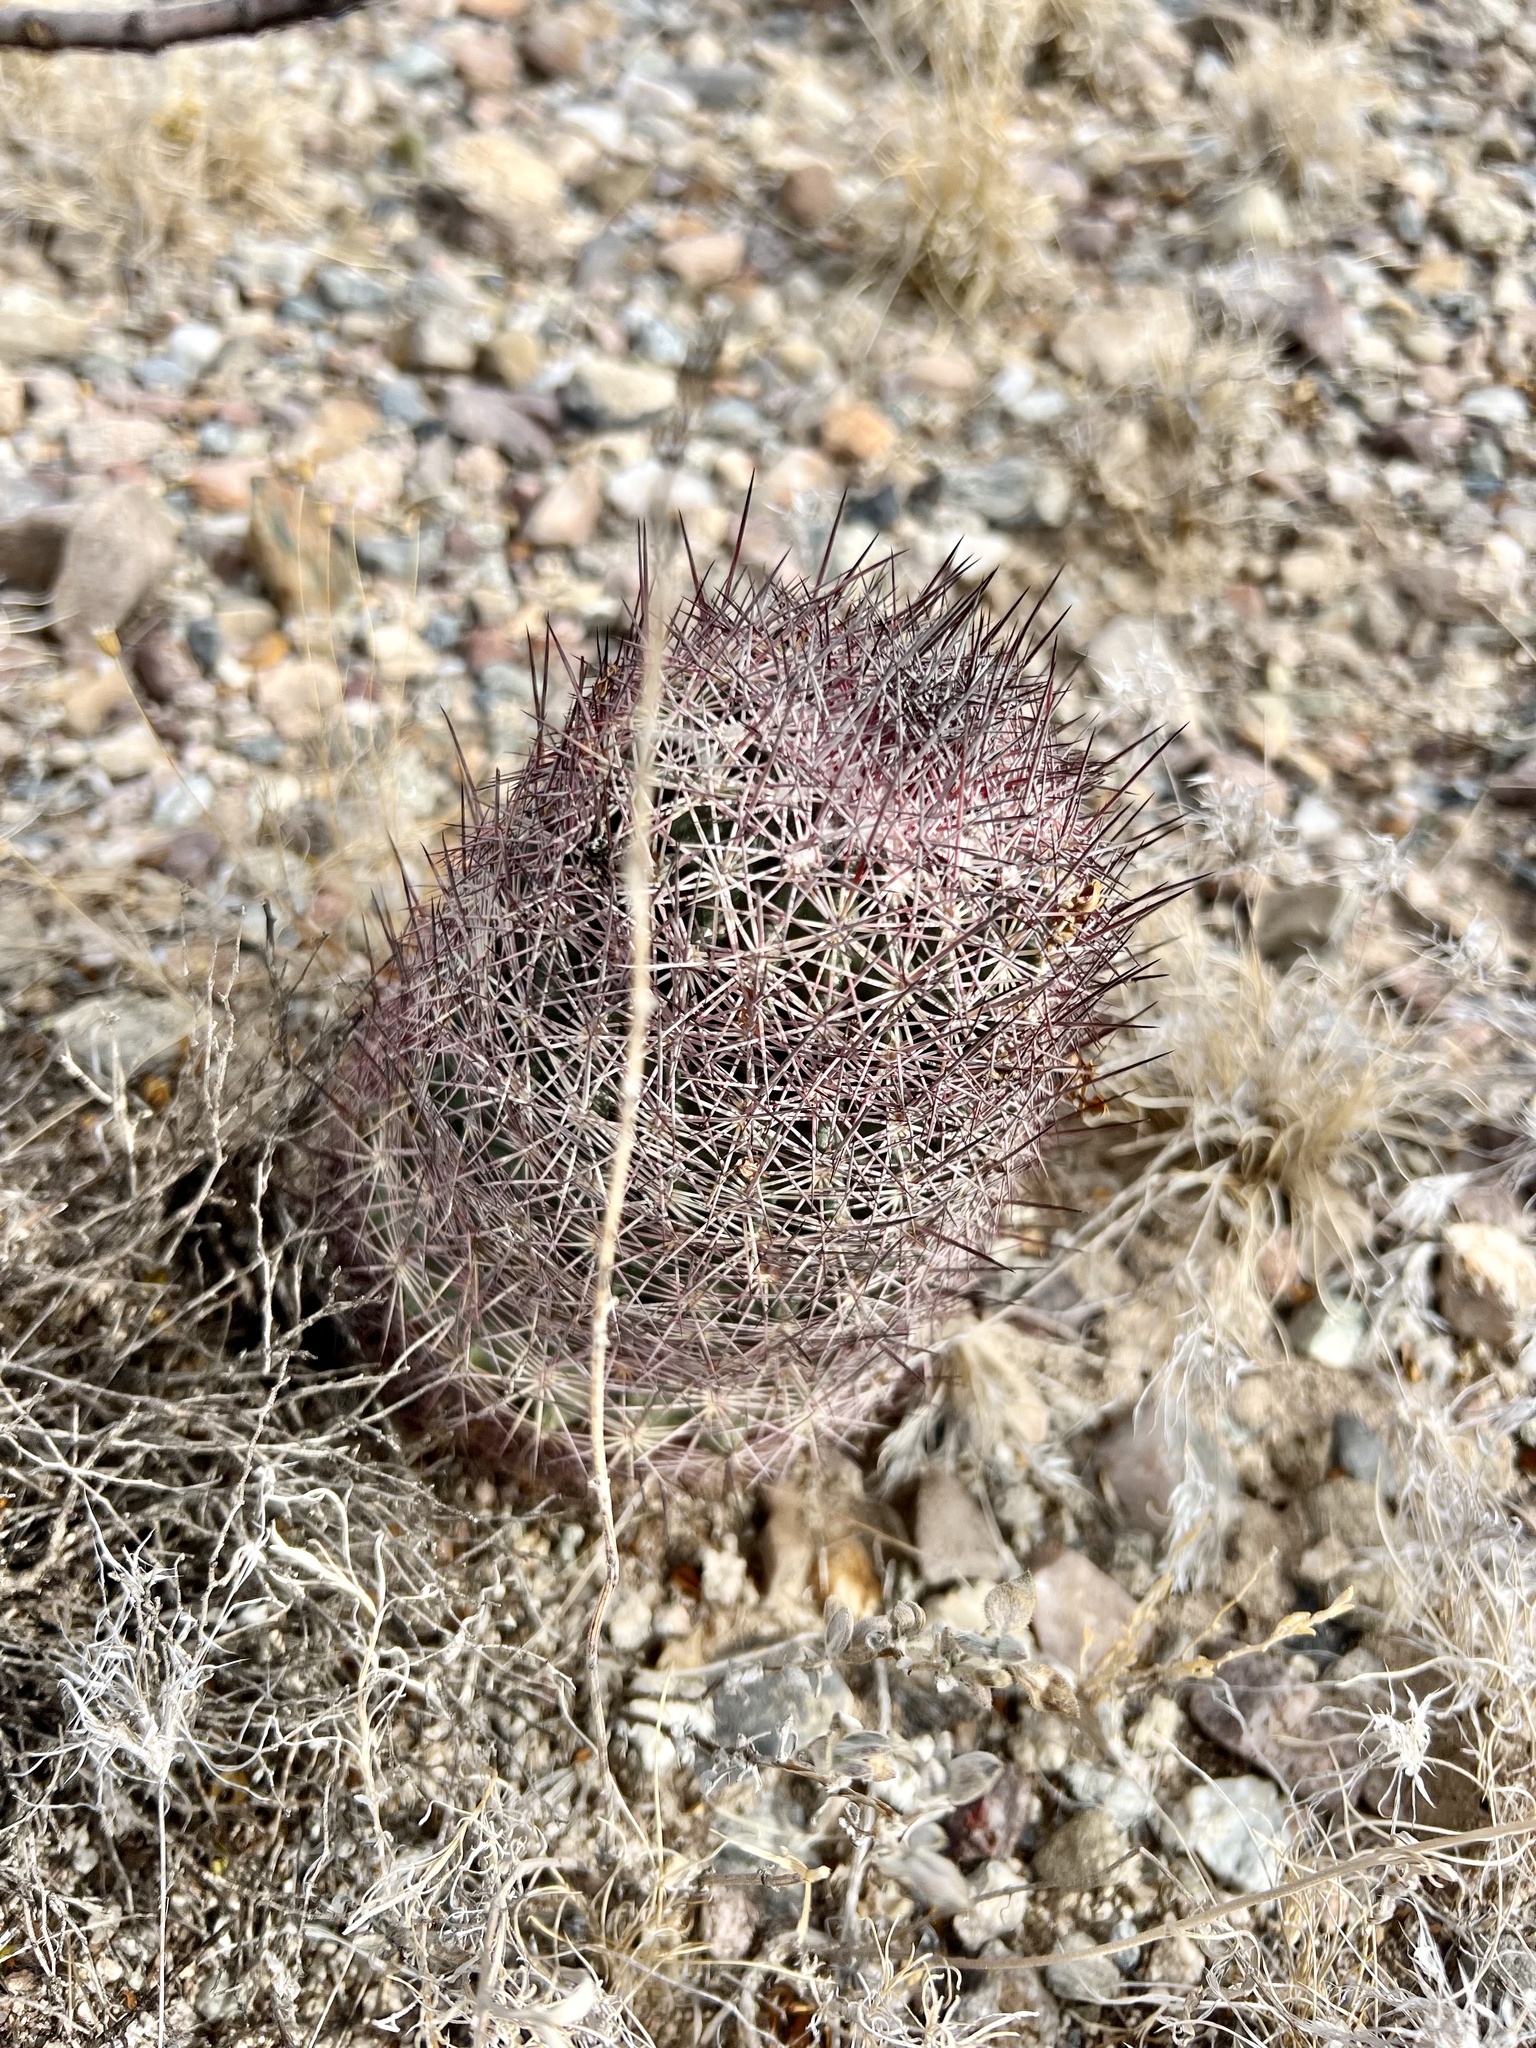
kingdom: Plantae
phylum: Tracheophyta
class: Magnoliopsida
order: Caryophyllales
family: Cactaceae
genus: Sclerocactus
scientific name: Sclerocactus johnsonii
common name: Eight-spine fishhook cactus
